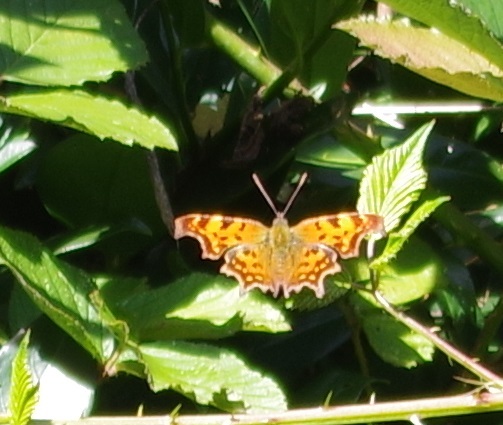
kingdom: Animalia
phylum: Arthropoda
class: Insecta
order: Lepidoptera
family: Nymphalidae
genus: Polygonia
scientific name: Polygonia c-album
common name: Comma
